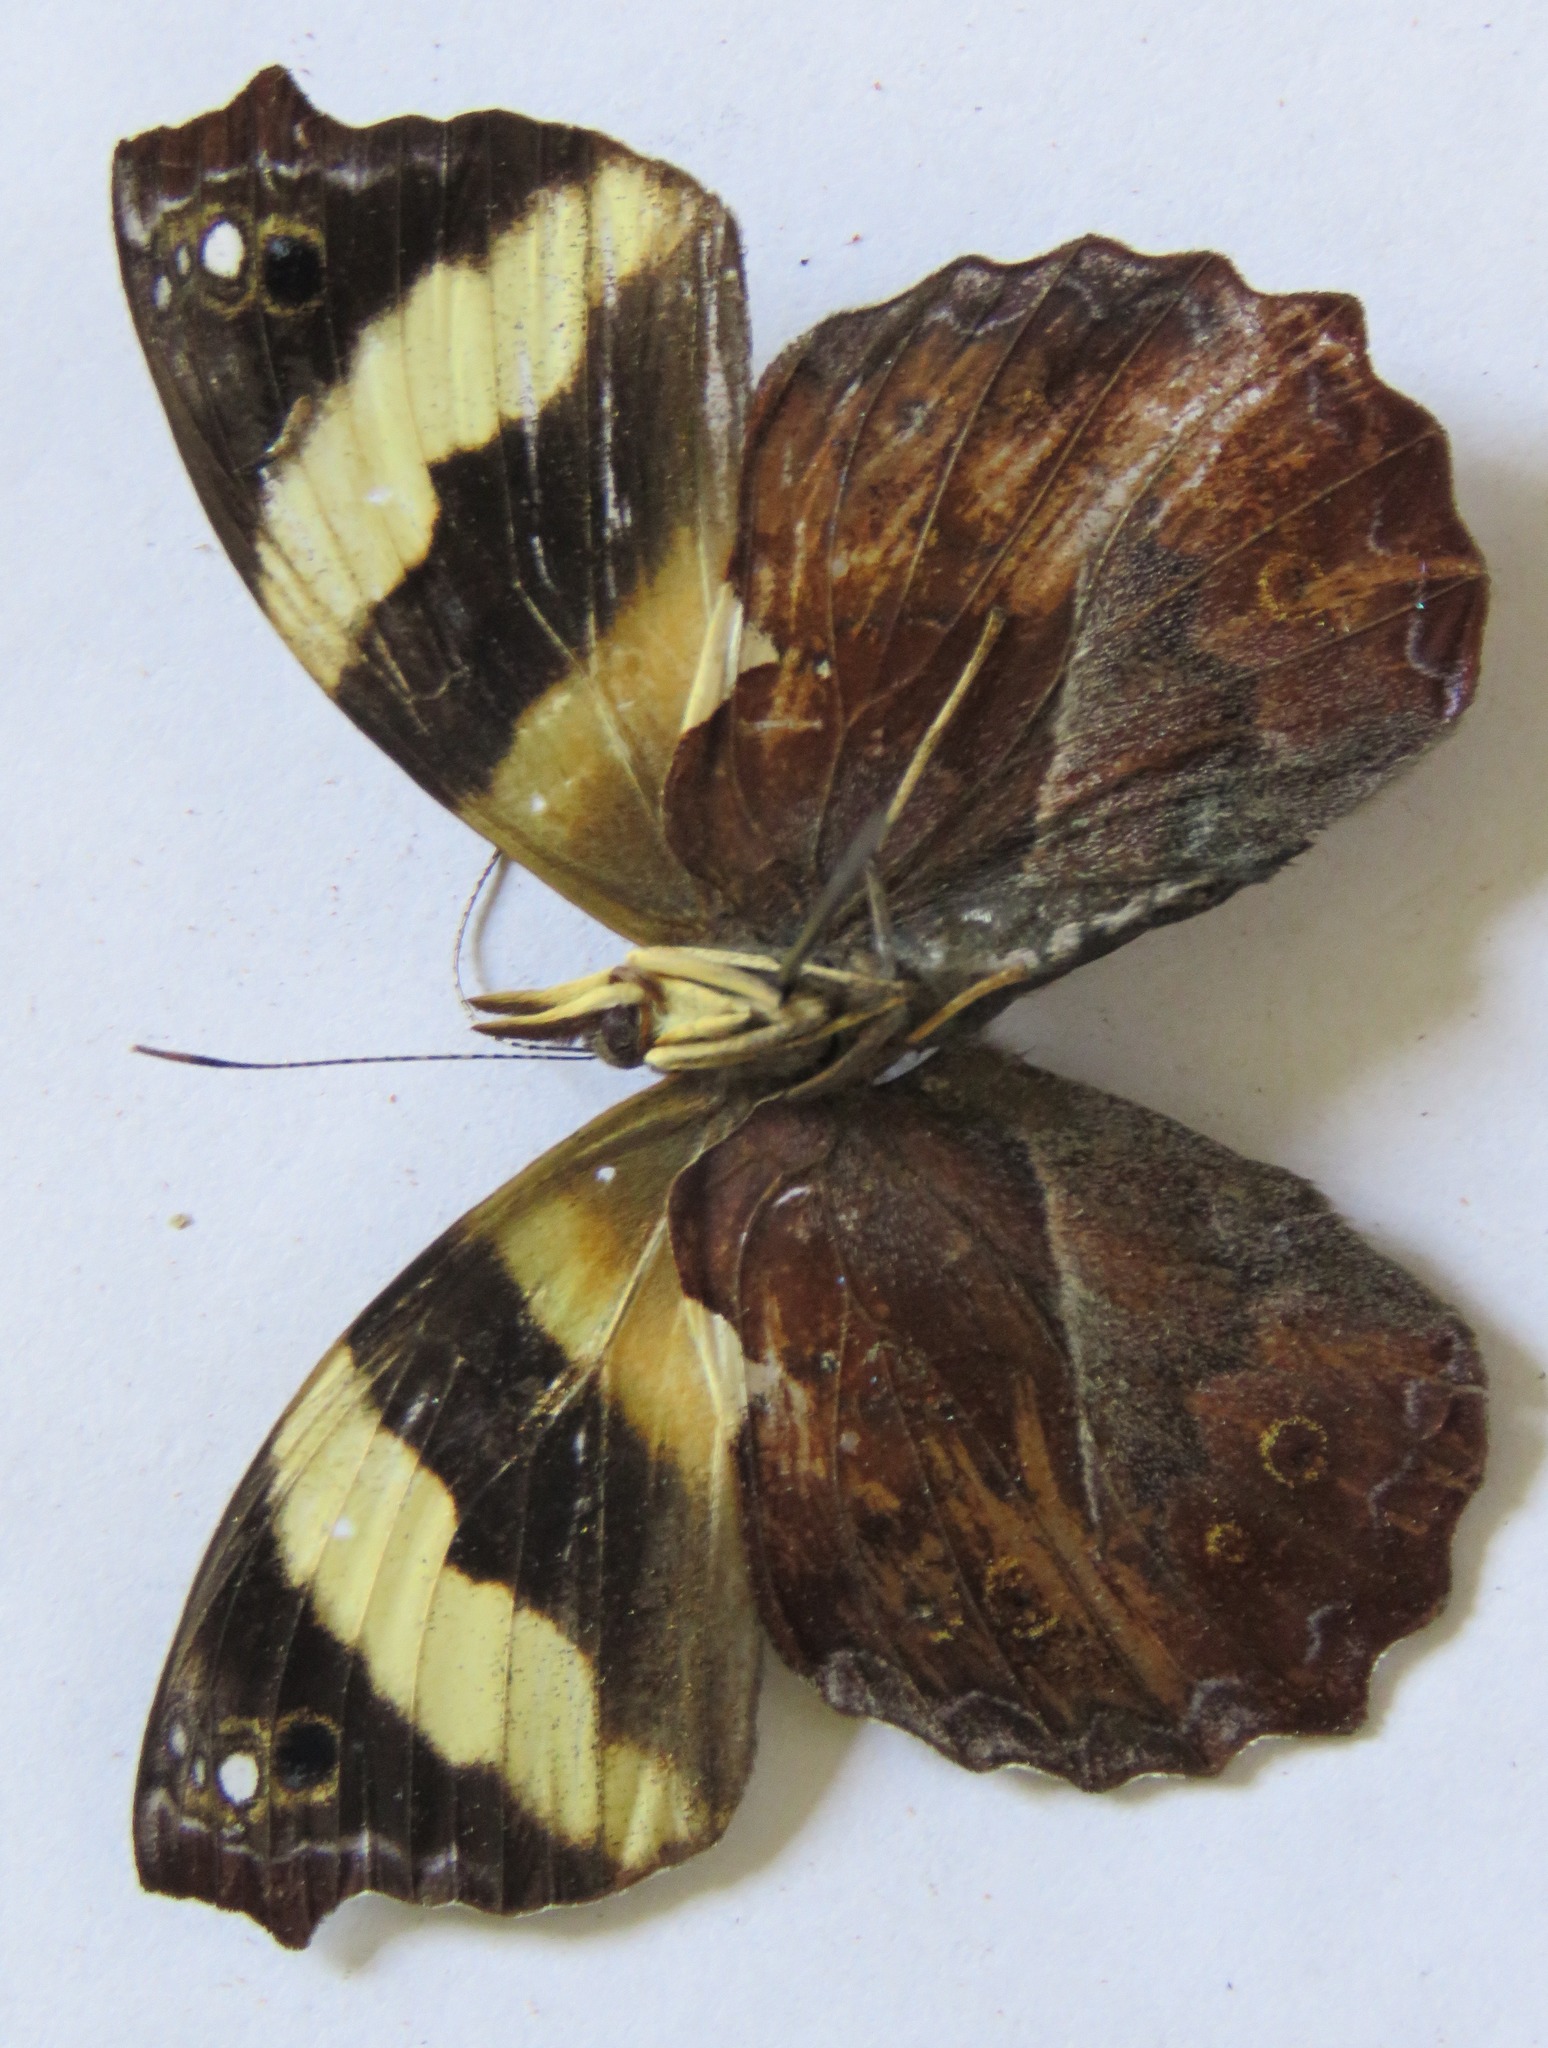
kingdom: Animalia
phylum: Arthropoda
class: Insecta
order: Lepidoptera
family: Nymphalidae
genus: Epiphile
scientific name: Epiphile adrasta
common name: Common banner
